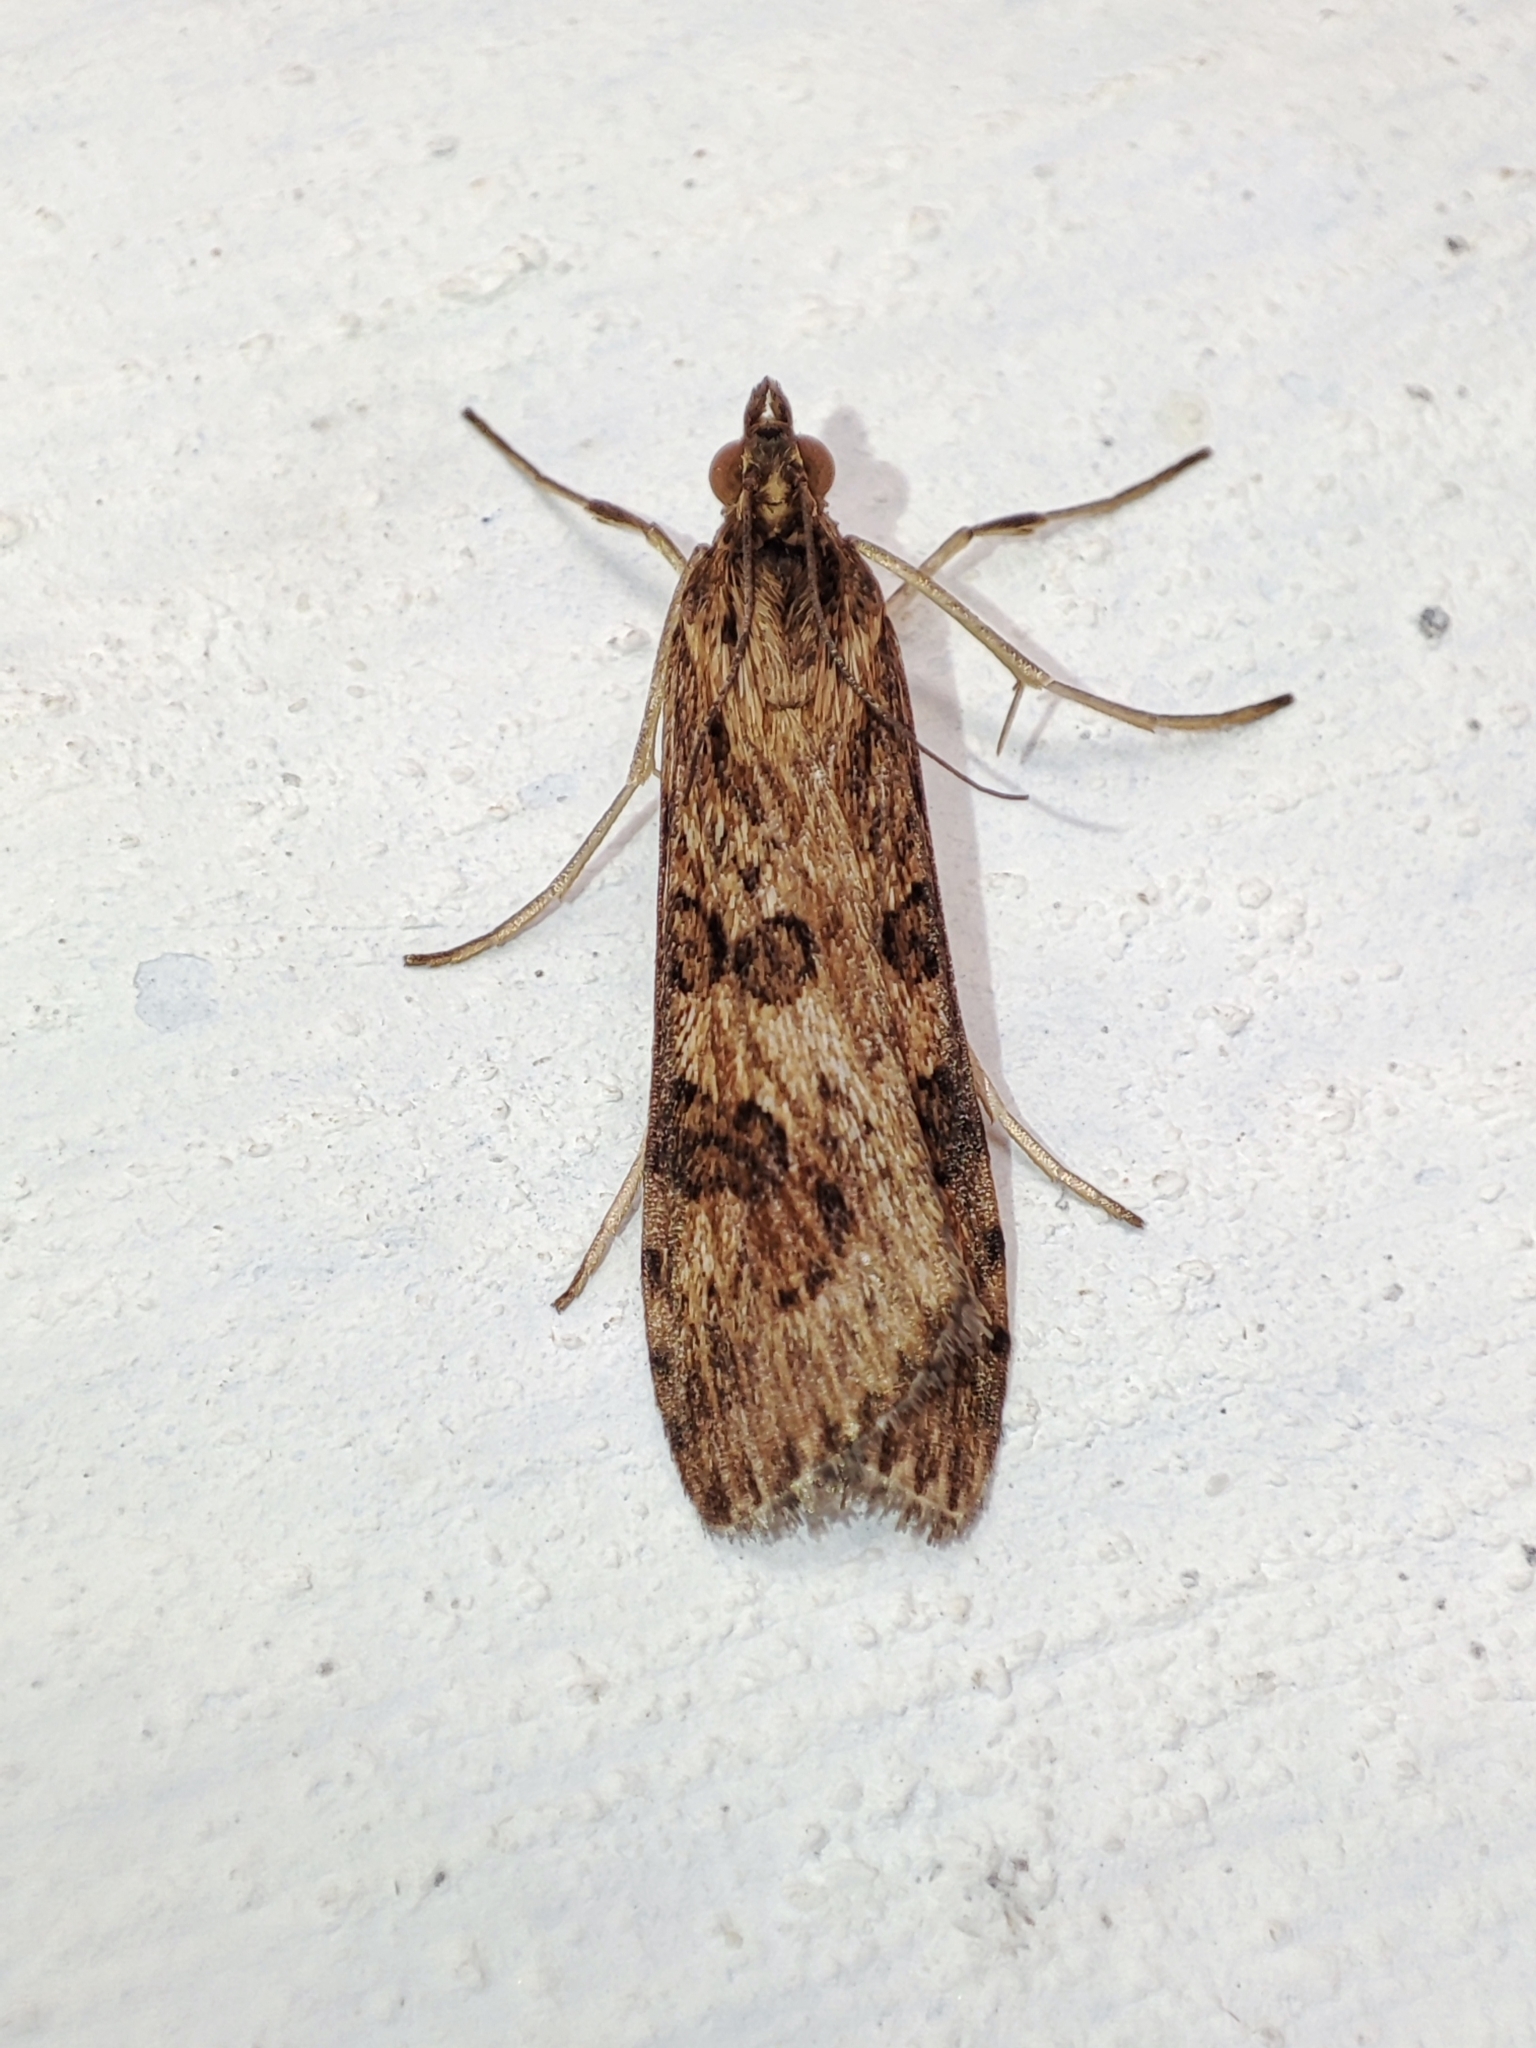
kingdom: Animalia
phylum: Arthropoda
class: Insecta
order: Lepidoptera
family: Crambidae
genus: Nomophila
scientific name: Nomophila noctuella
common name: Rush veneer
